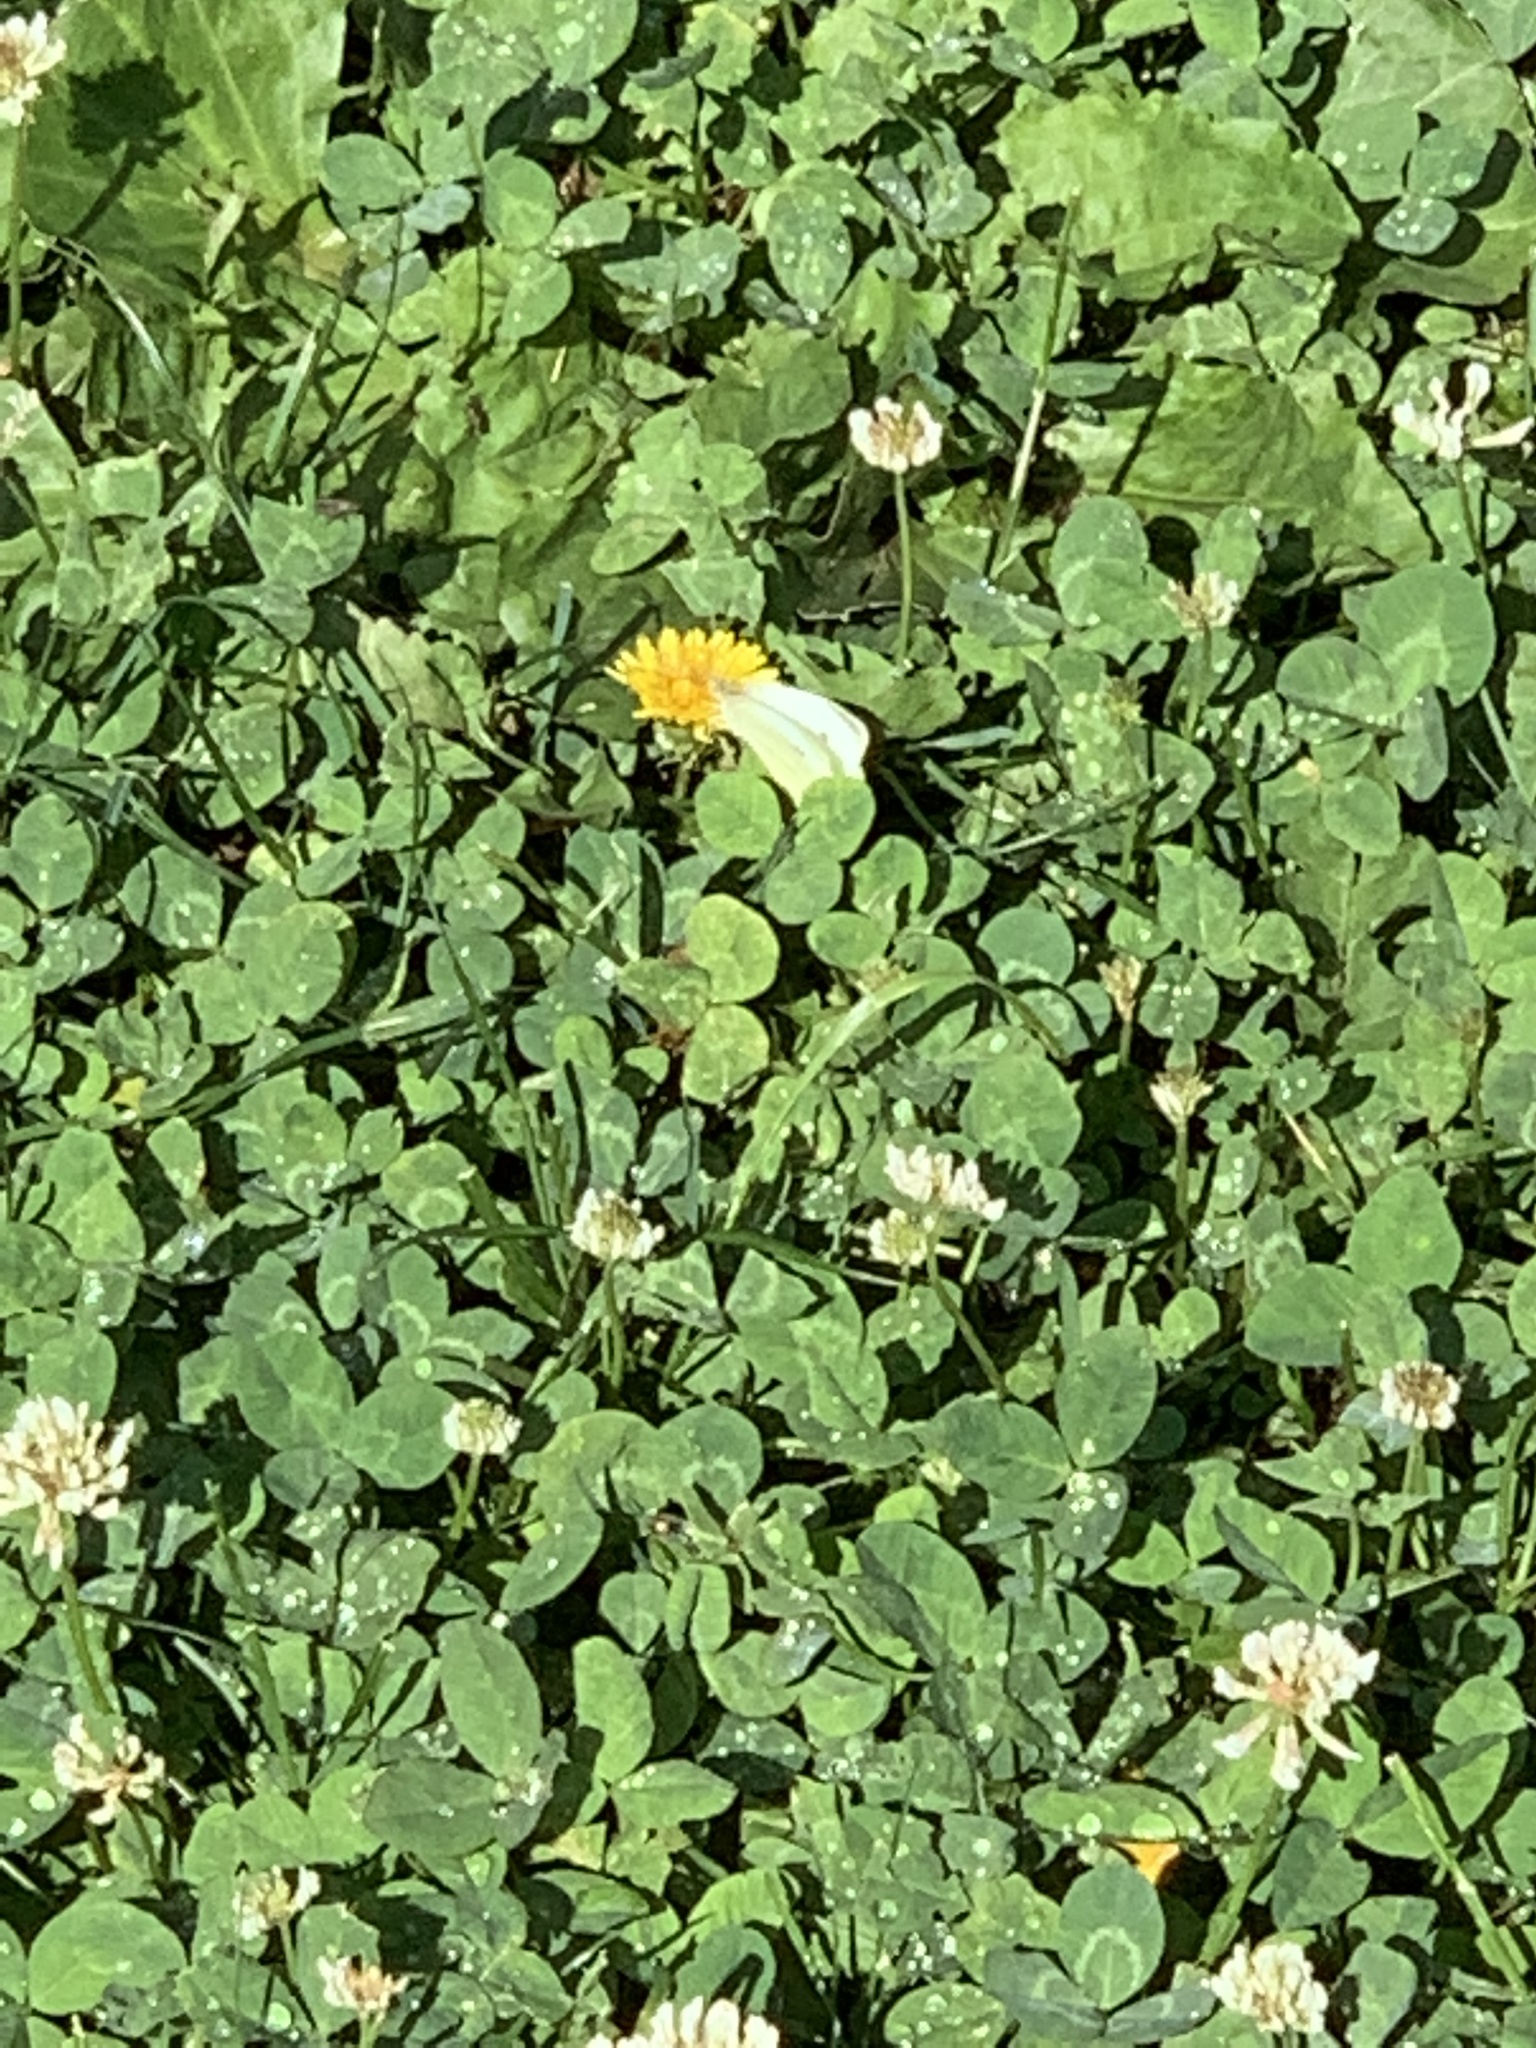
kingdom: Animalia
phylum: Arthropoda
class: Insecta
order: Lepidoptera
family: Pieridae
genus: Pieris
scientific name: Pieris rapae
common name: Small white
